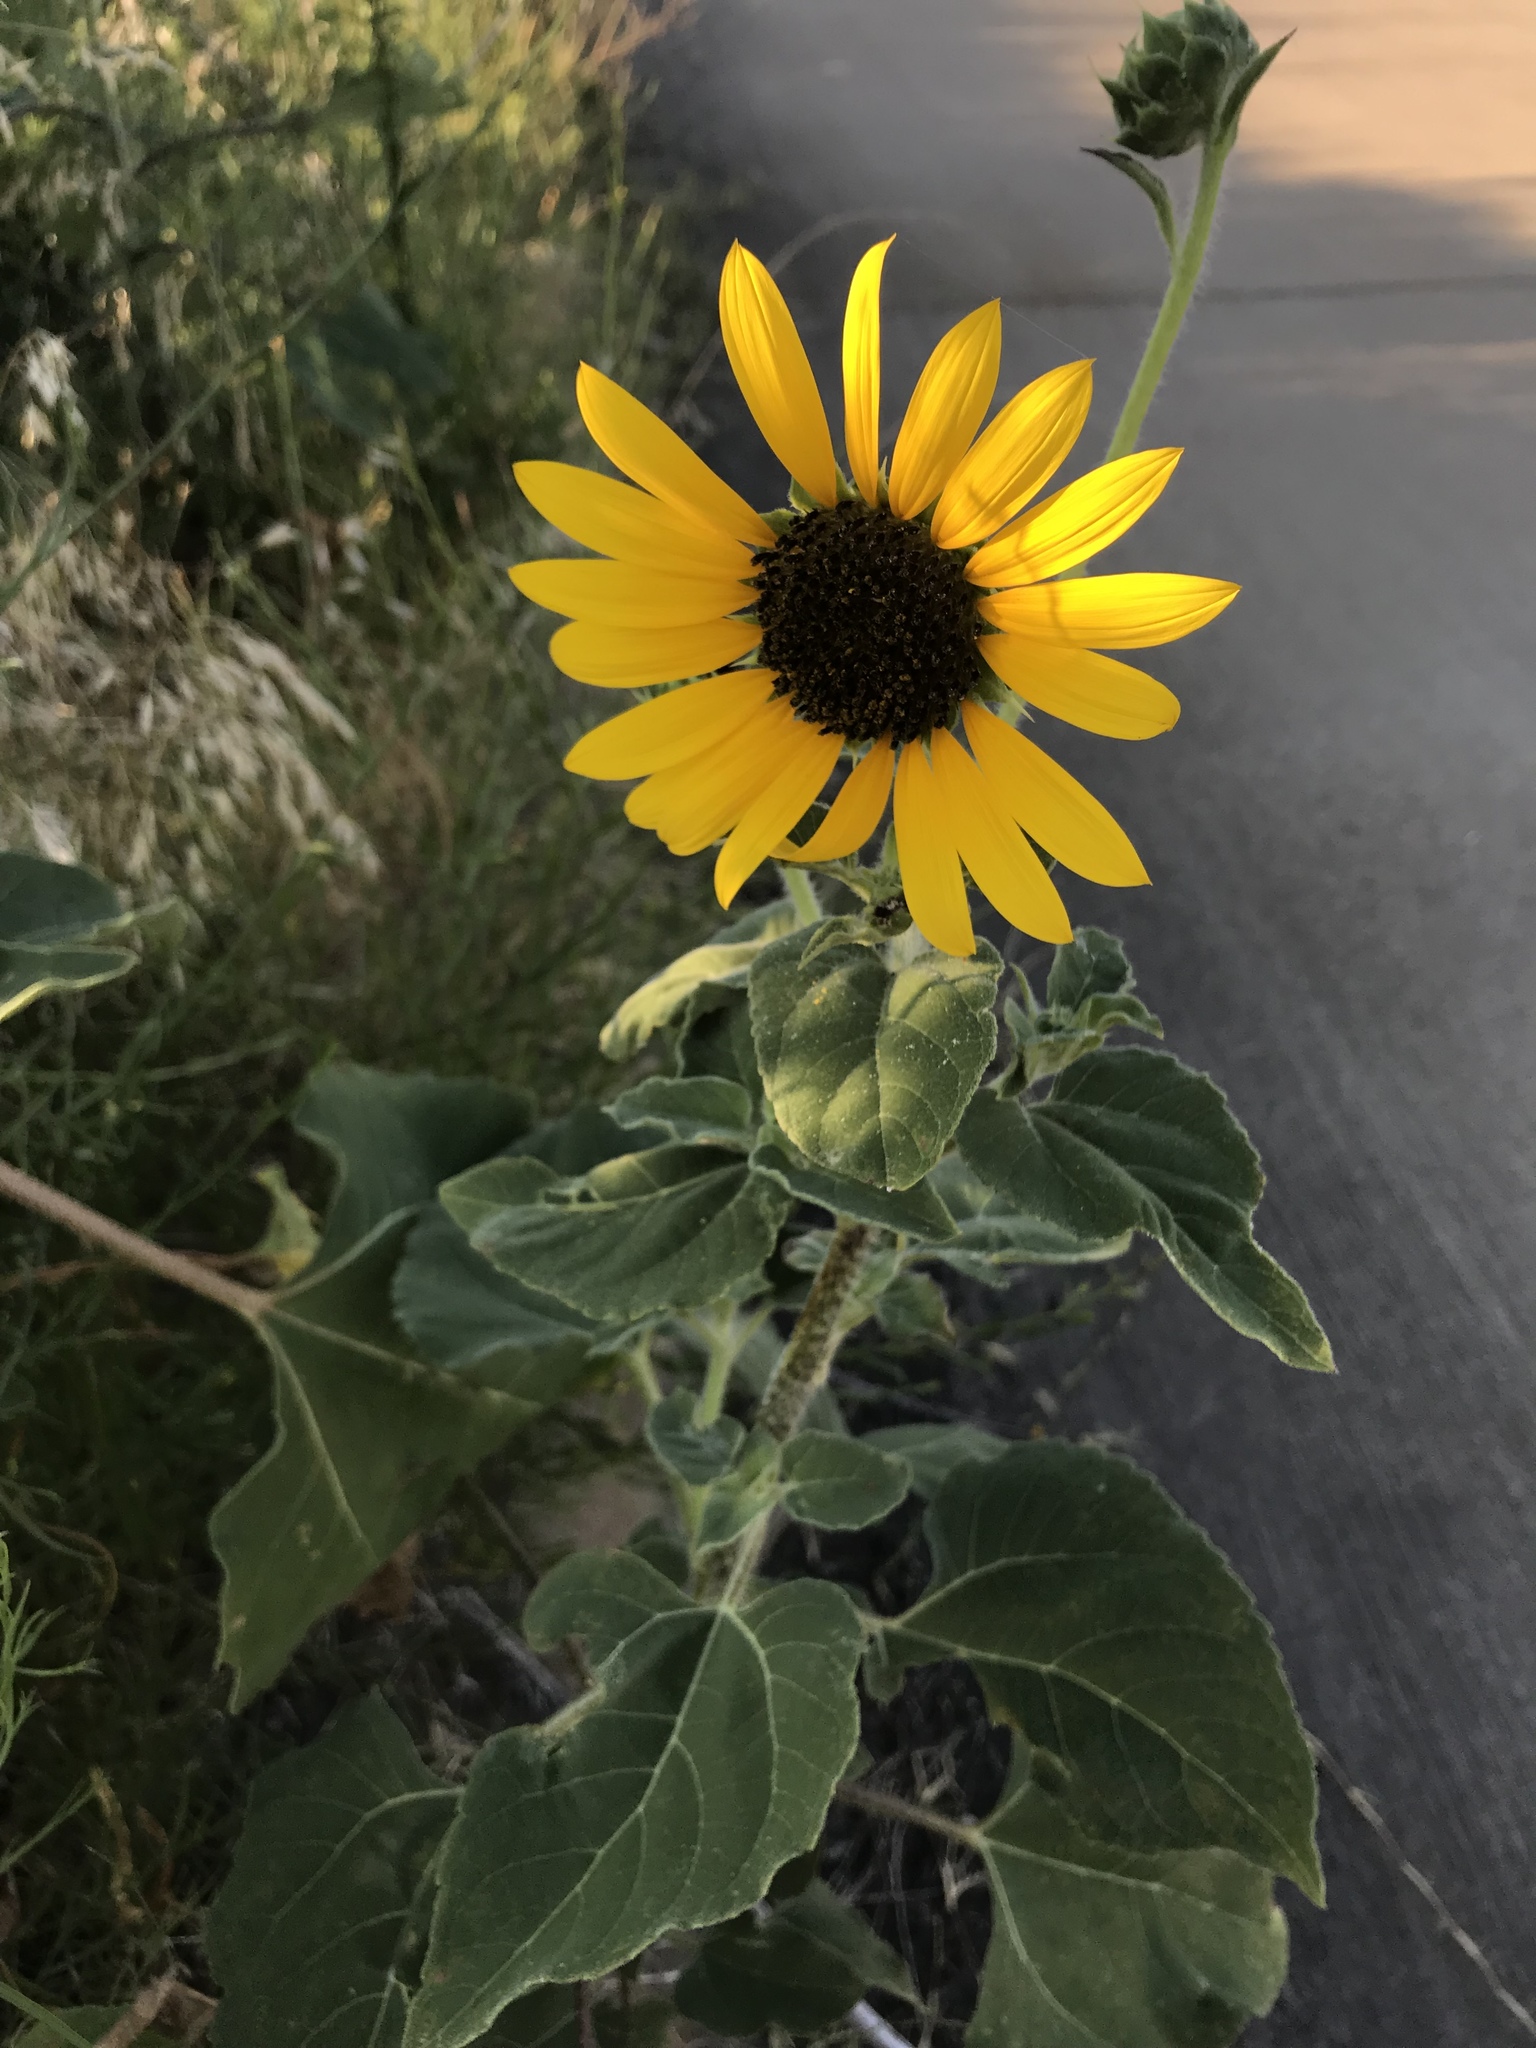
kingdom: Plantae
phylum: Tracheophyta
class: Magnoliopsida
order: Asterales
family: Asteraceae
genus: Helianthus
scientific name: Helianthus annuus
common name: Sunflower
